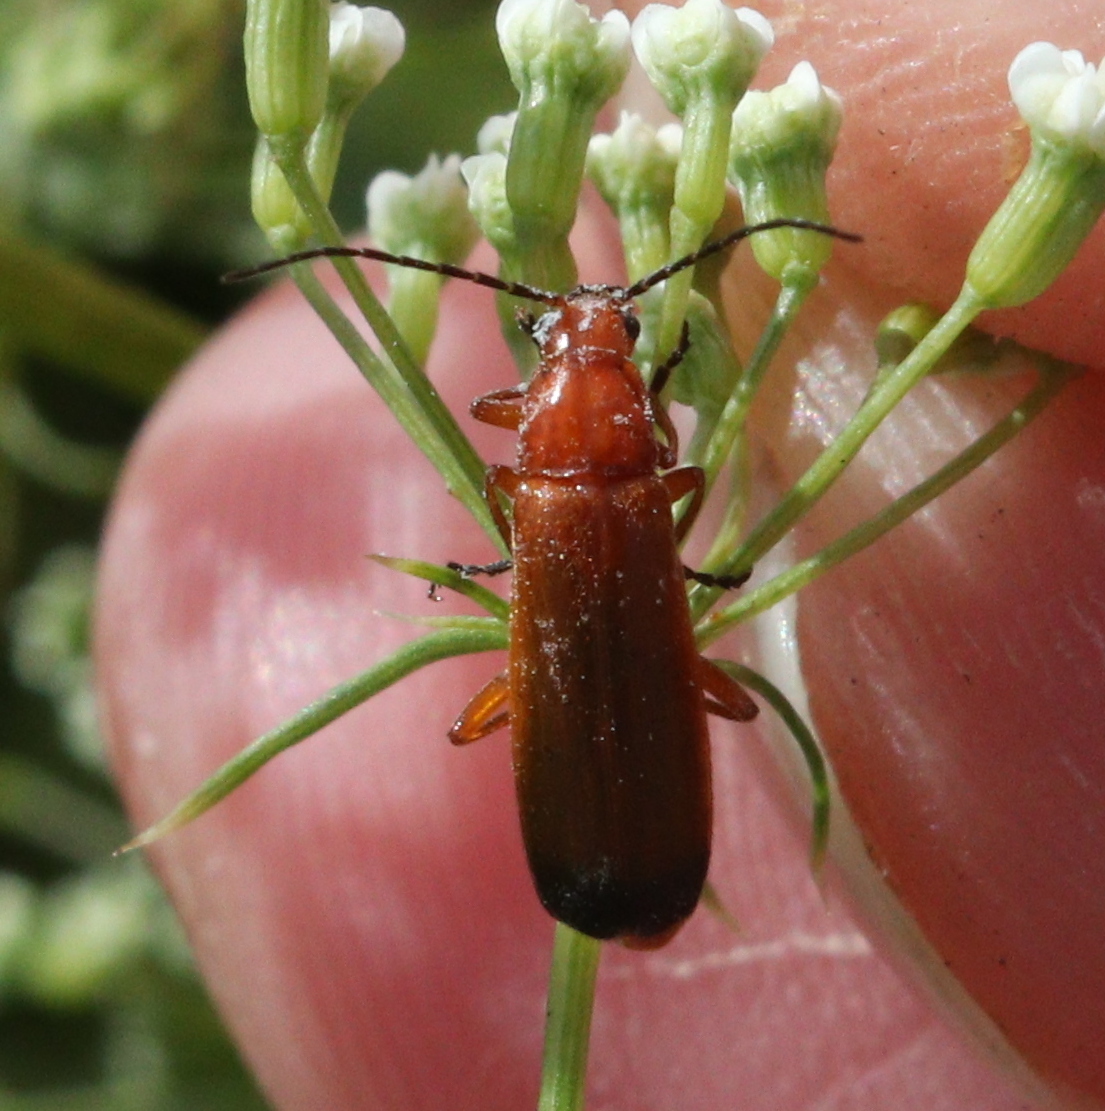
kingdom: Animalia
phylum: Arthropoda
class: Insecta
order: Coleoptera
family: Cantharidae
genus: Rhagonycha
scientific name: Rhagonycha fulva
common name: Common red soldier beetle
